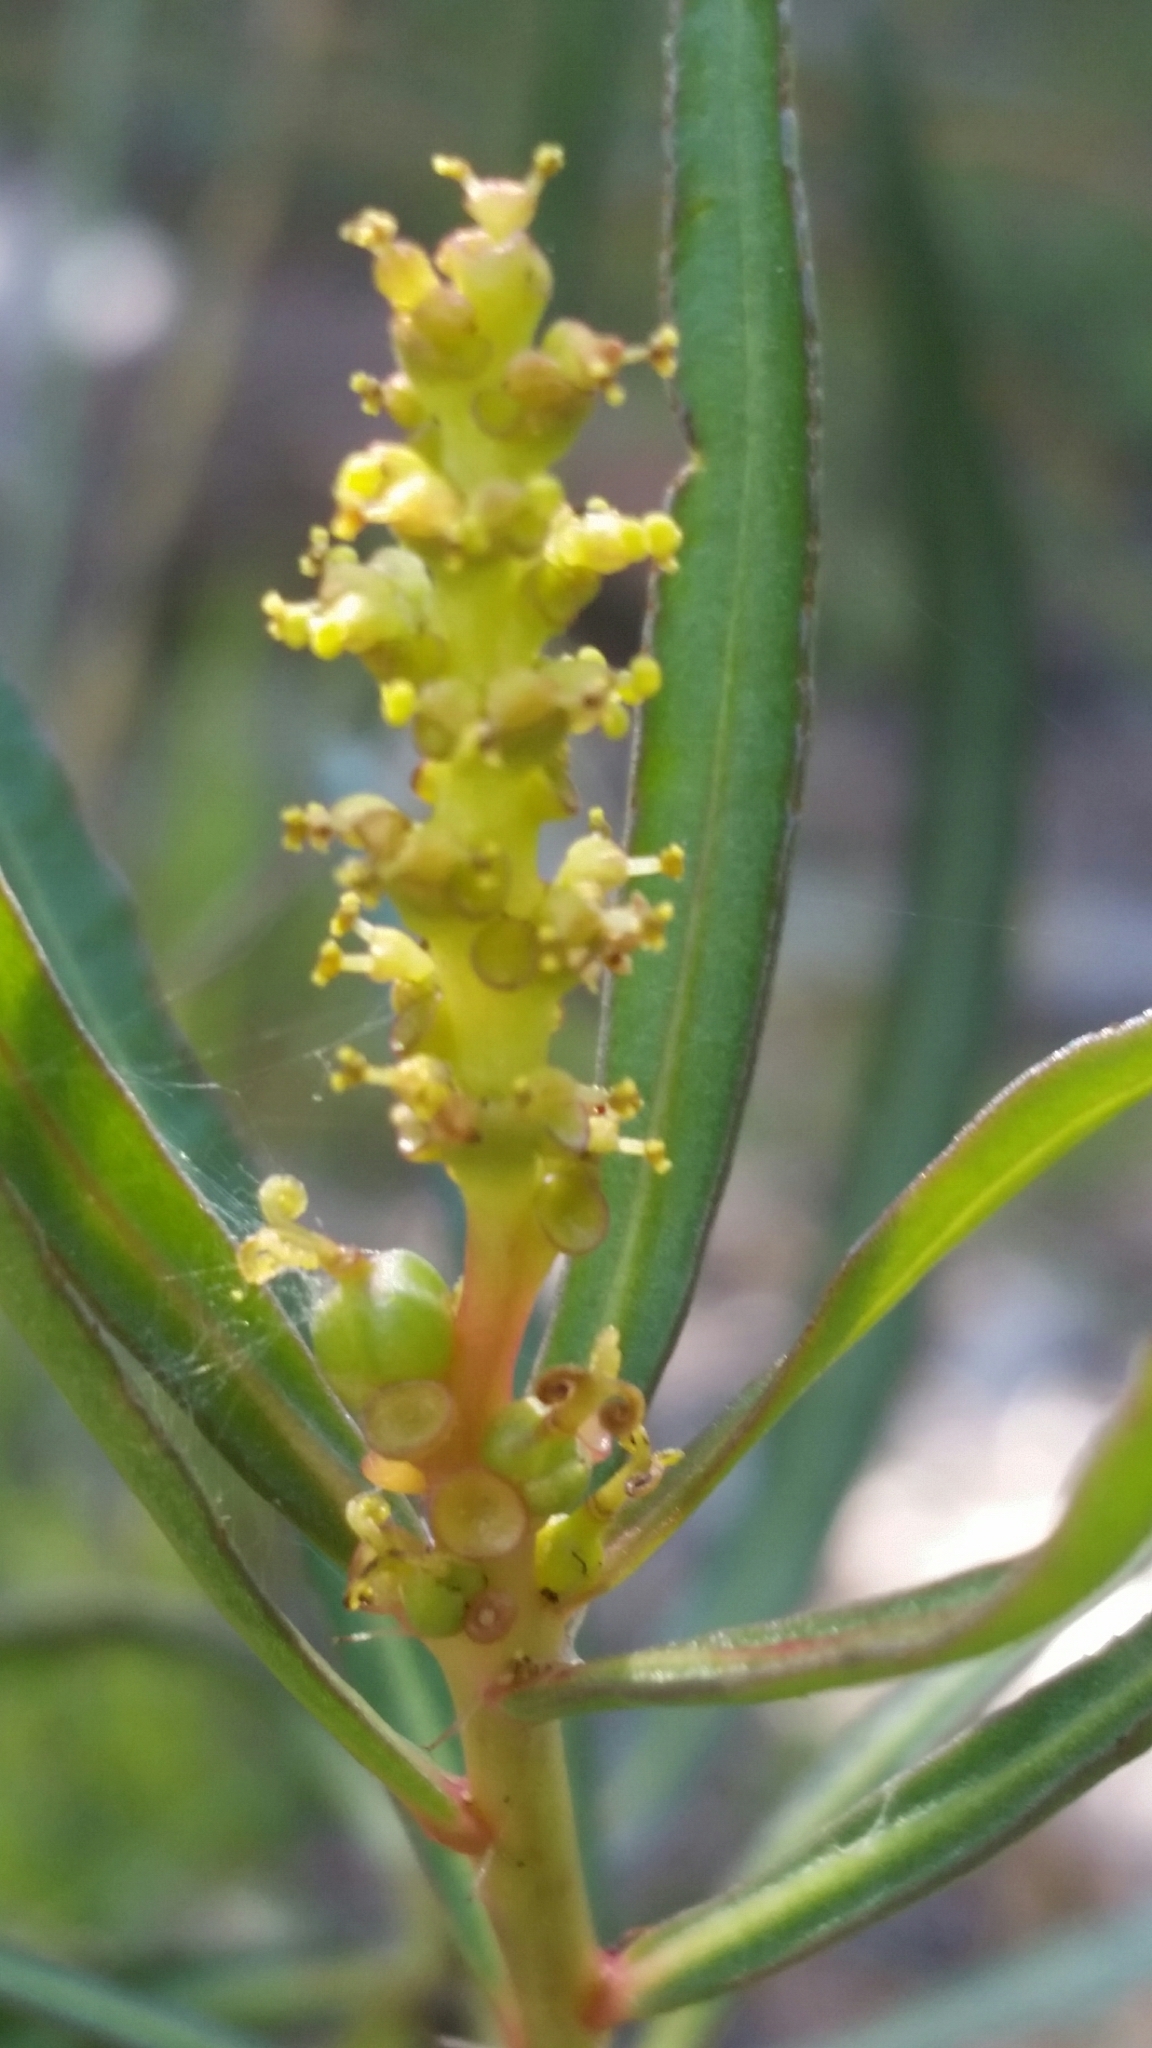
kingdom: Plantae
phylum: Tracheophyta
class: Magnoliopsida
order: Malpighiales
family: Euphorbiaceae
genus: Stillingia
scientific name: Stillingia sylvatica
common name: Queen's-delight
